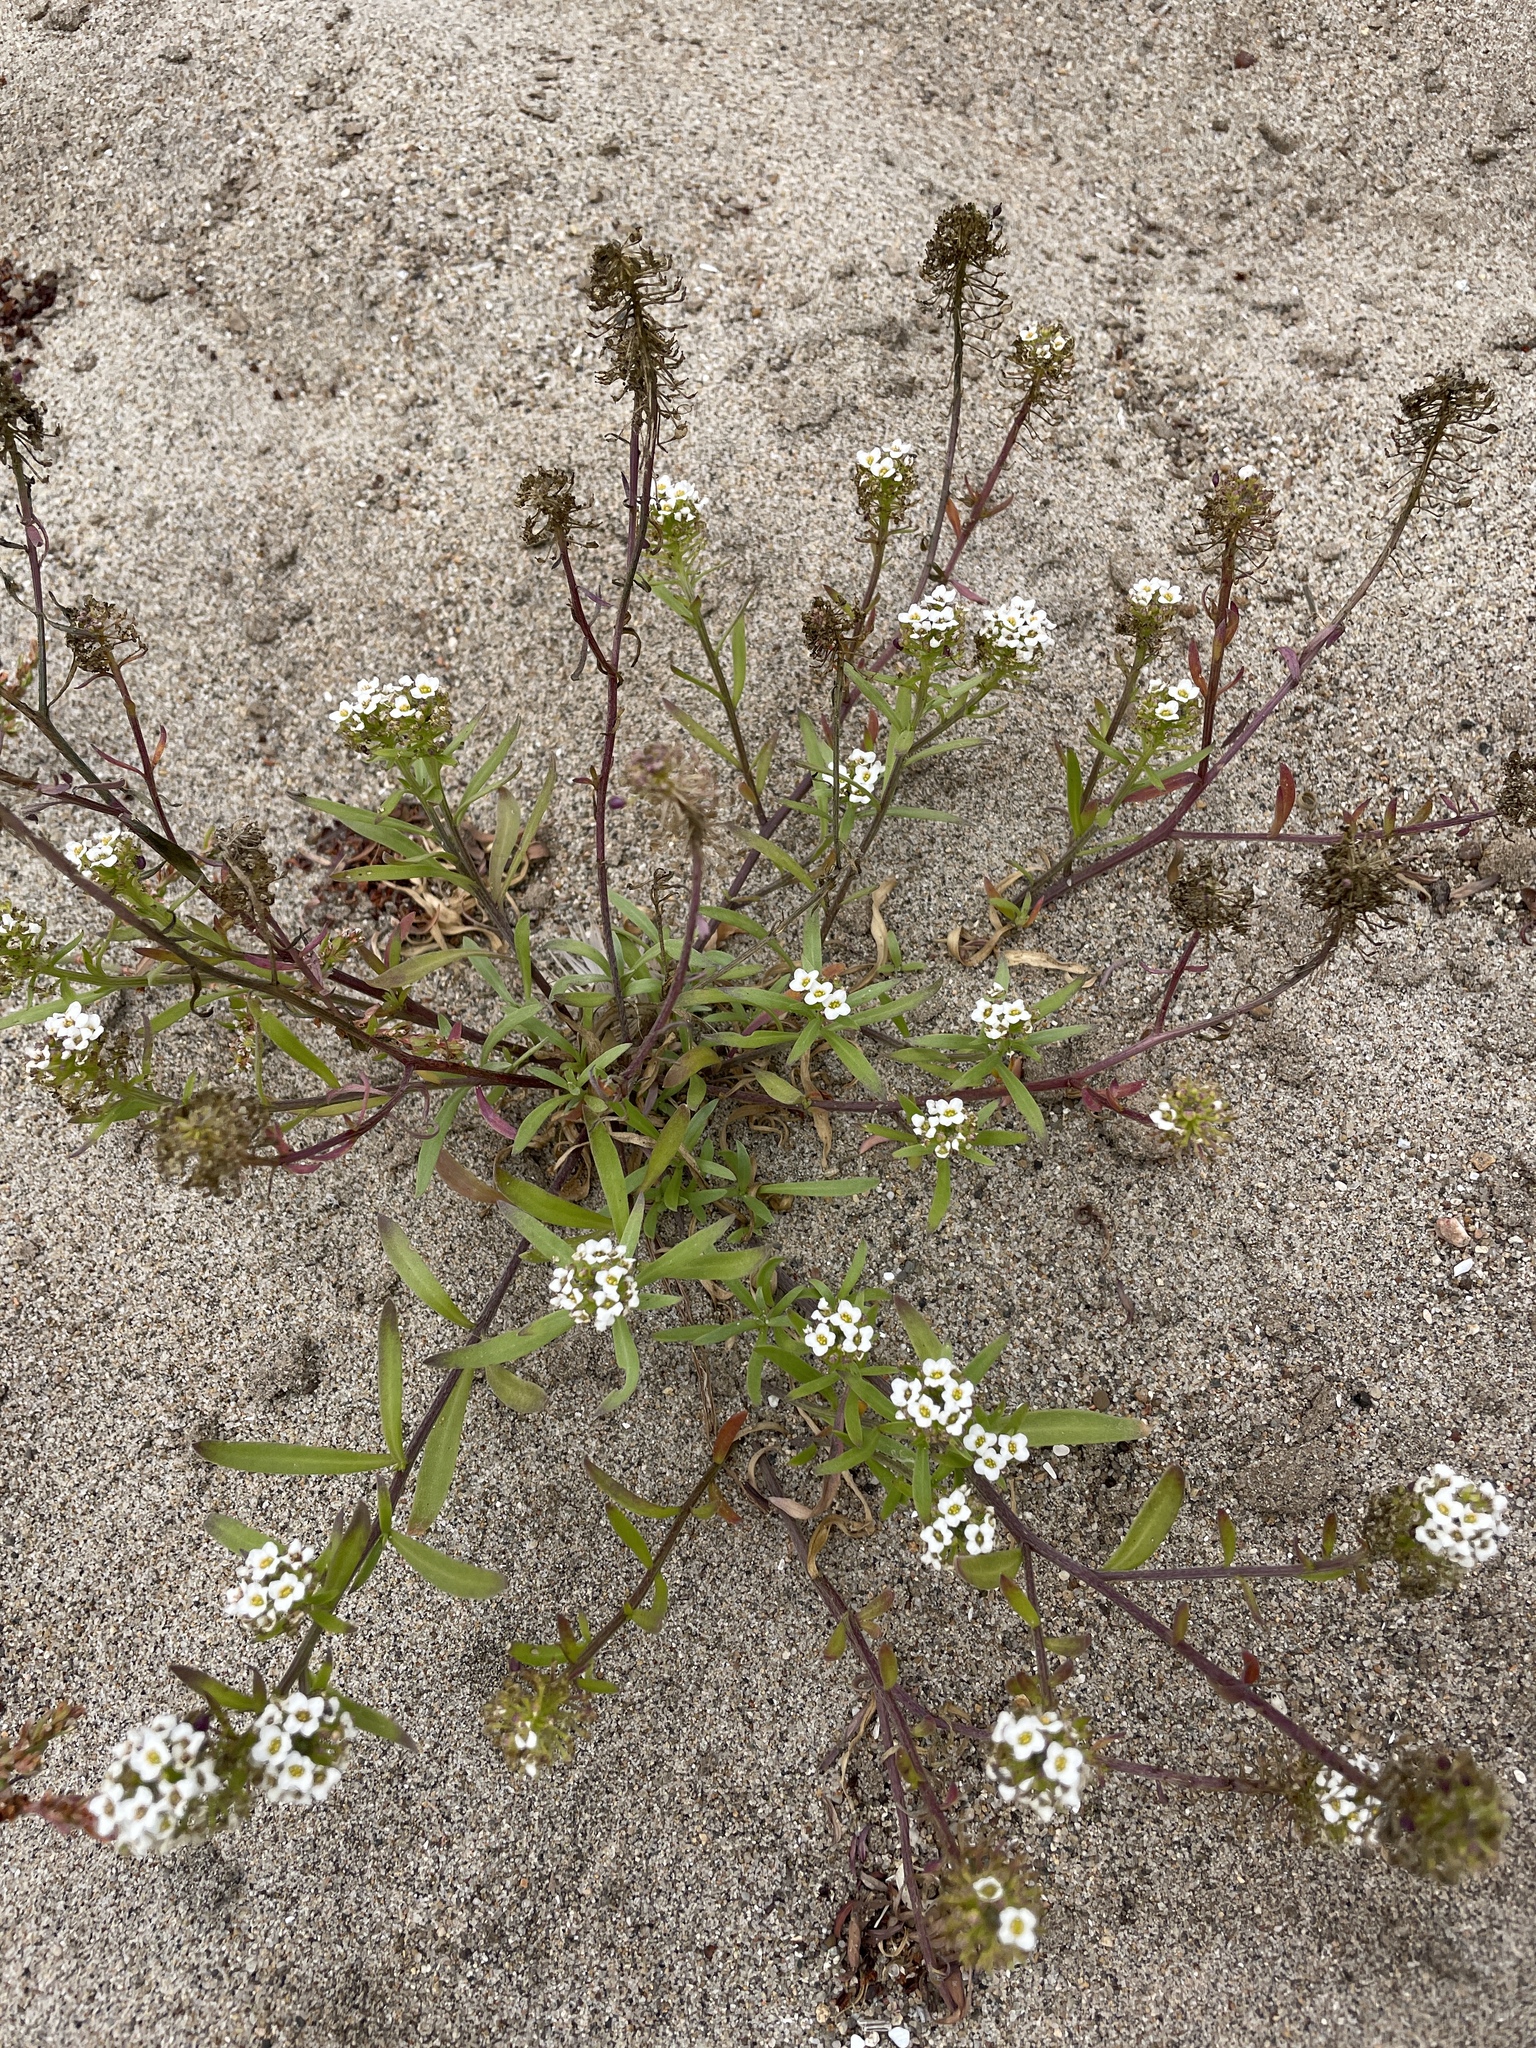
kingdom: Plantae
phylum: Tracheophyta
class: Magnoliopsida
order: Brassicales
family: Brassicaceae
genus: Lobularia
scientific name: Lobularia maritima
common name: Sweet alison
